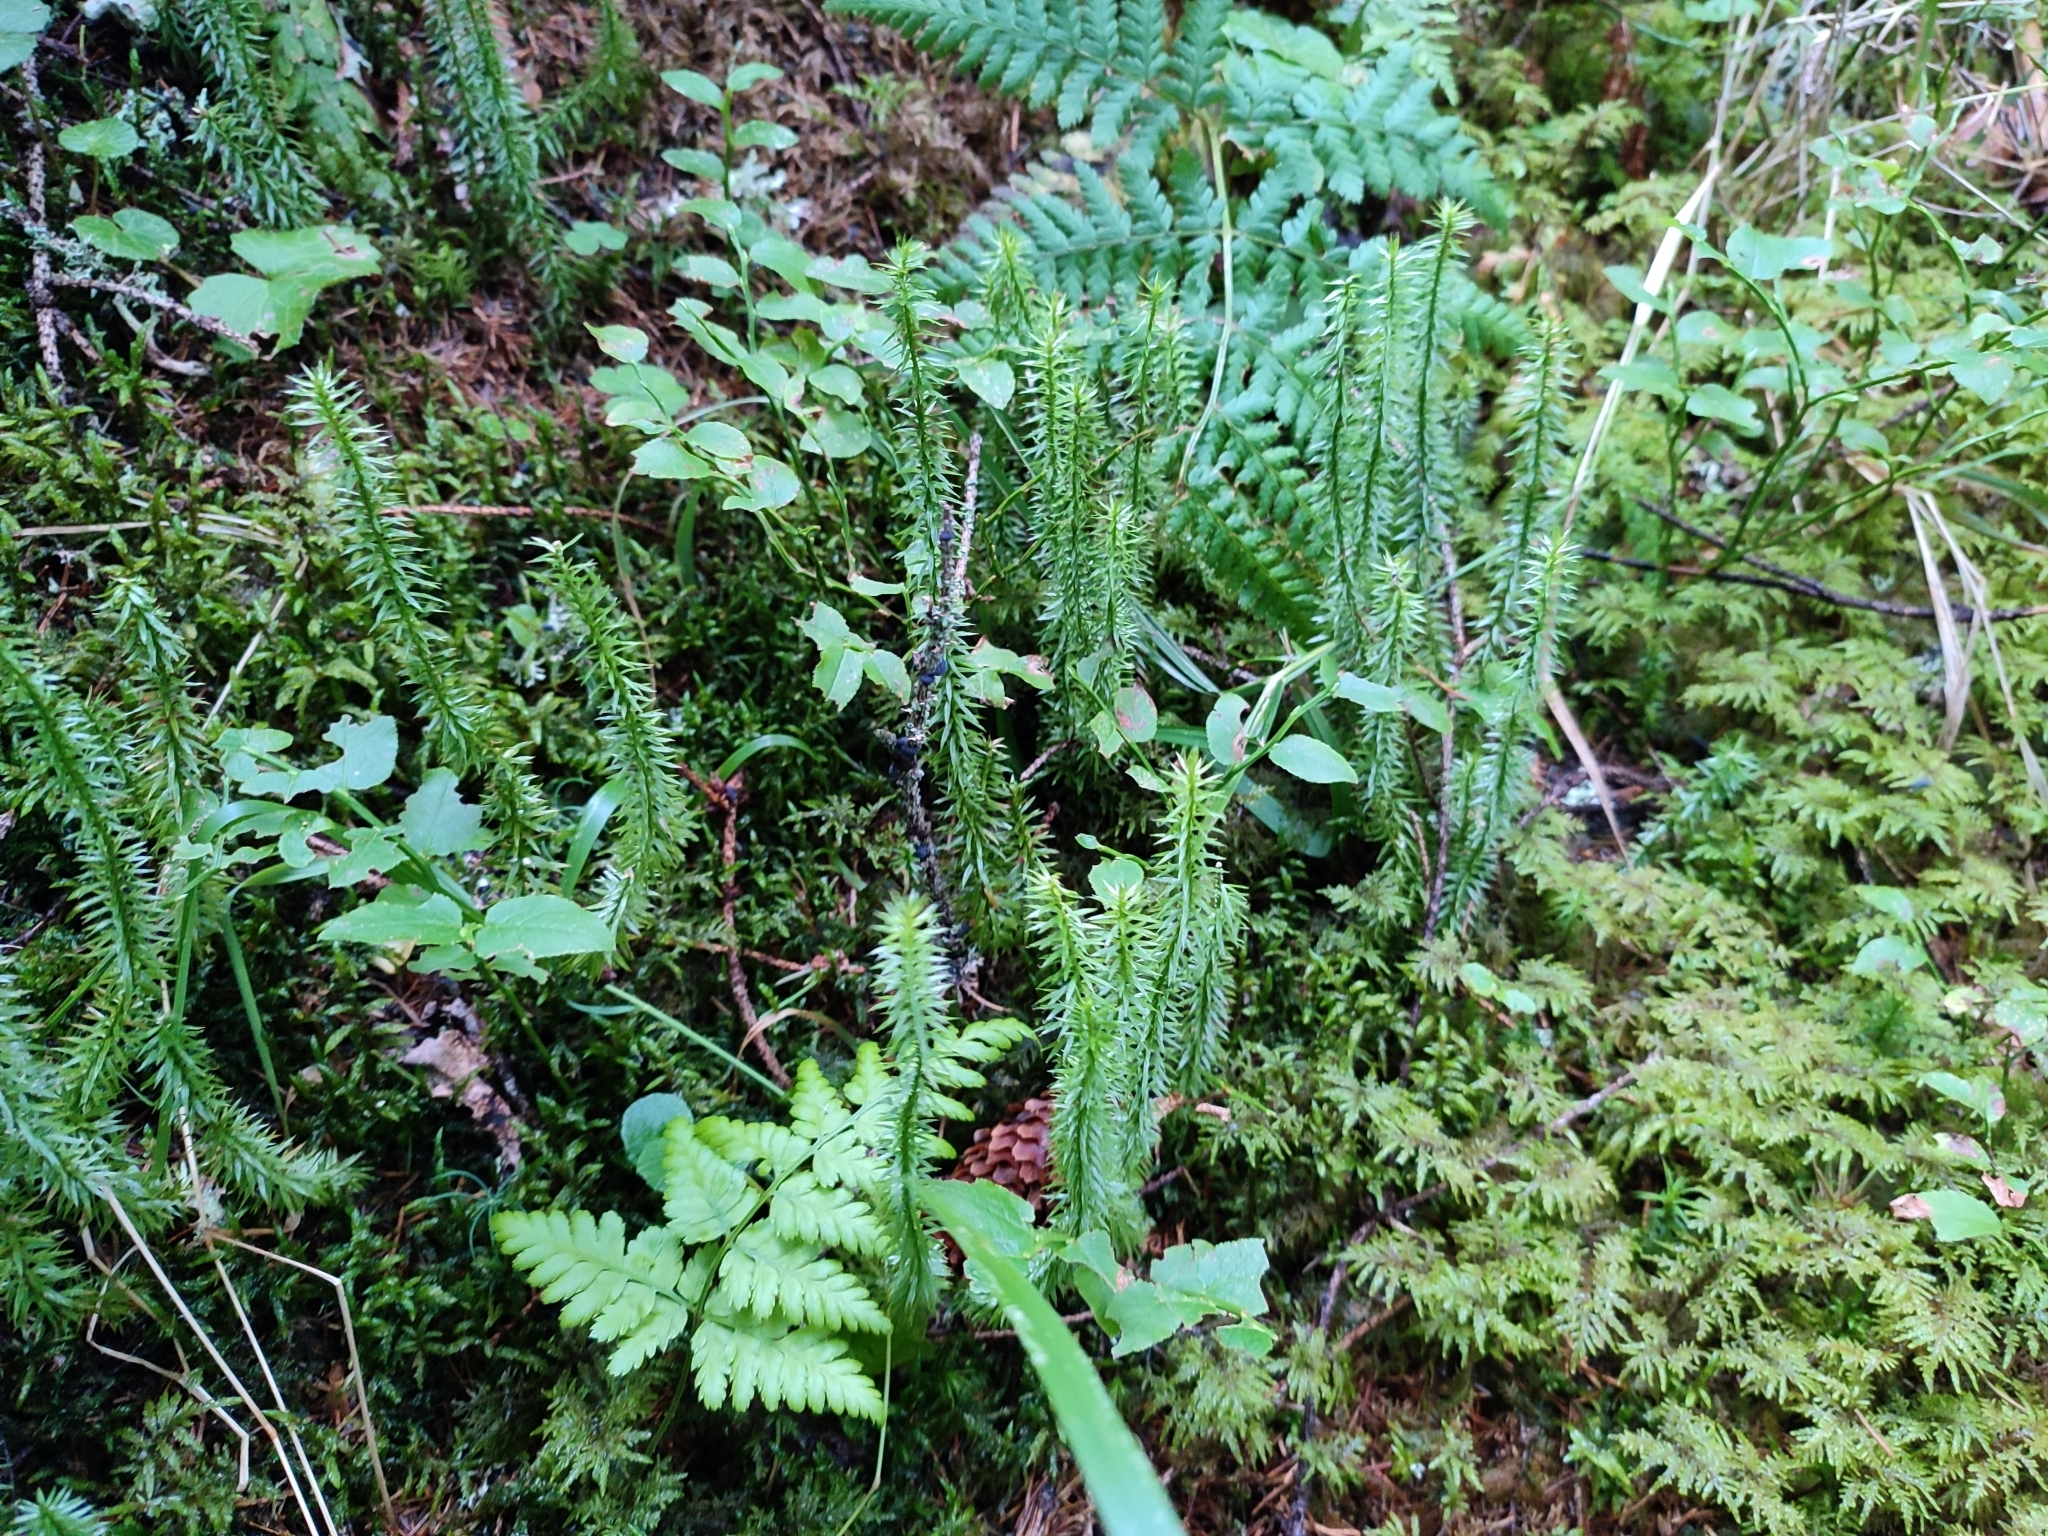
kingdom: Plantae
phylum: Tracheophyta
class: Lycopodiopsida
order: Lycopodiales
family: Lycopodiaceae
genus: Spinulum
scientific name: Spinulum annotinum
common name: Interrupted club-moss
